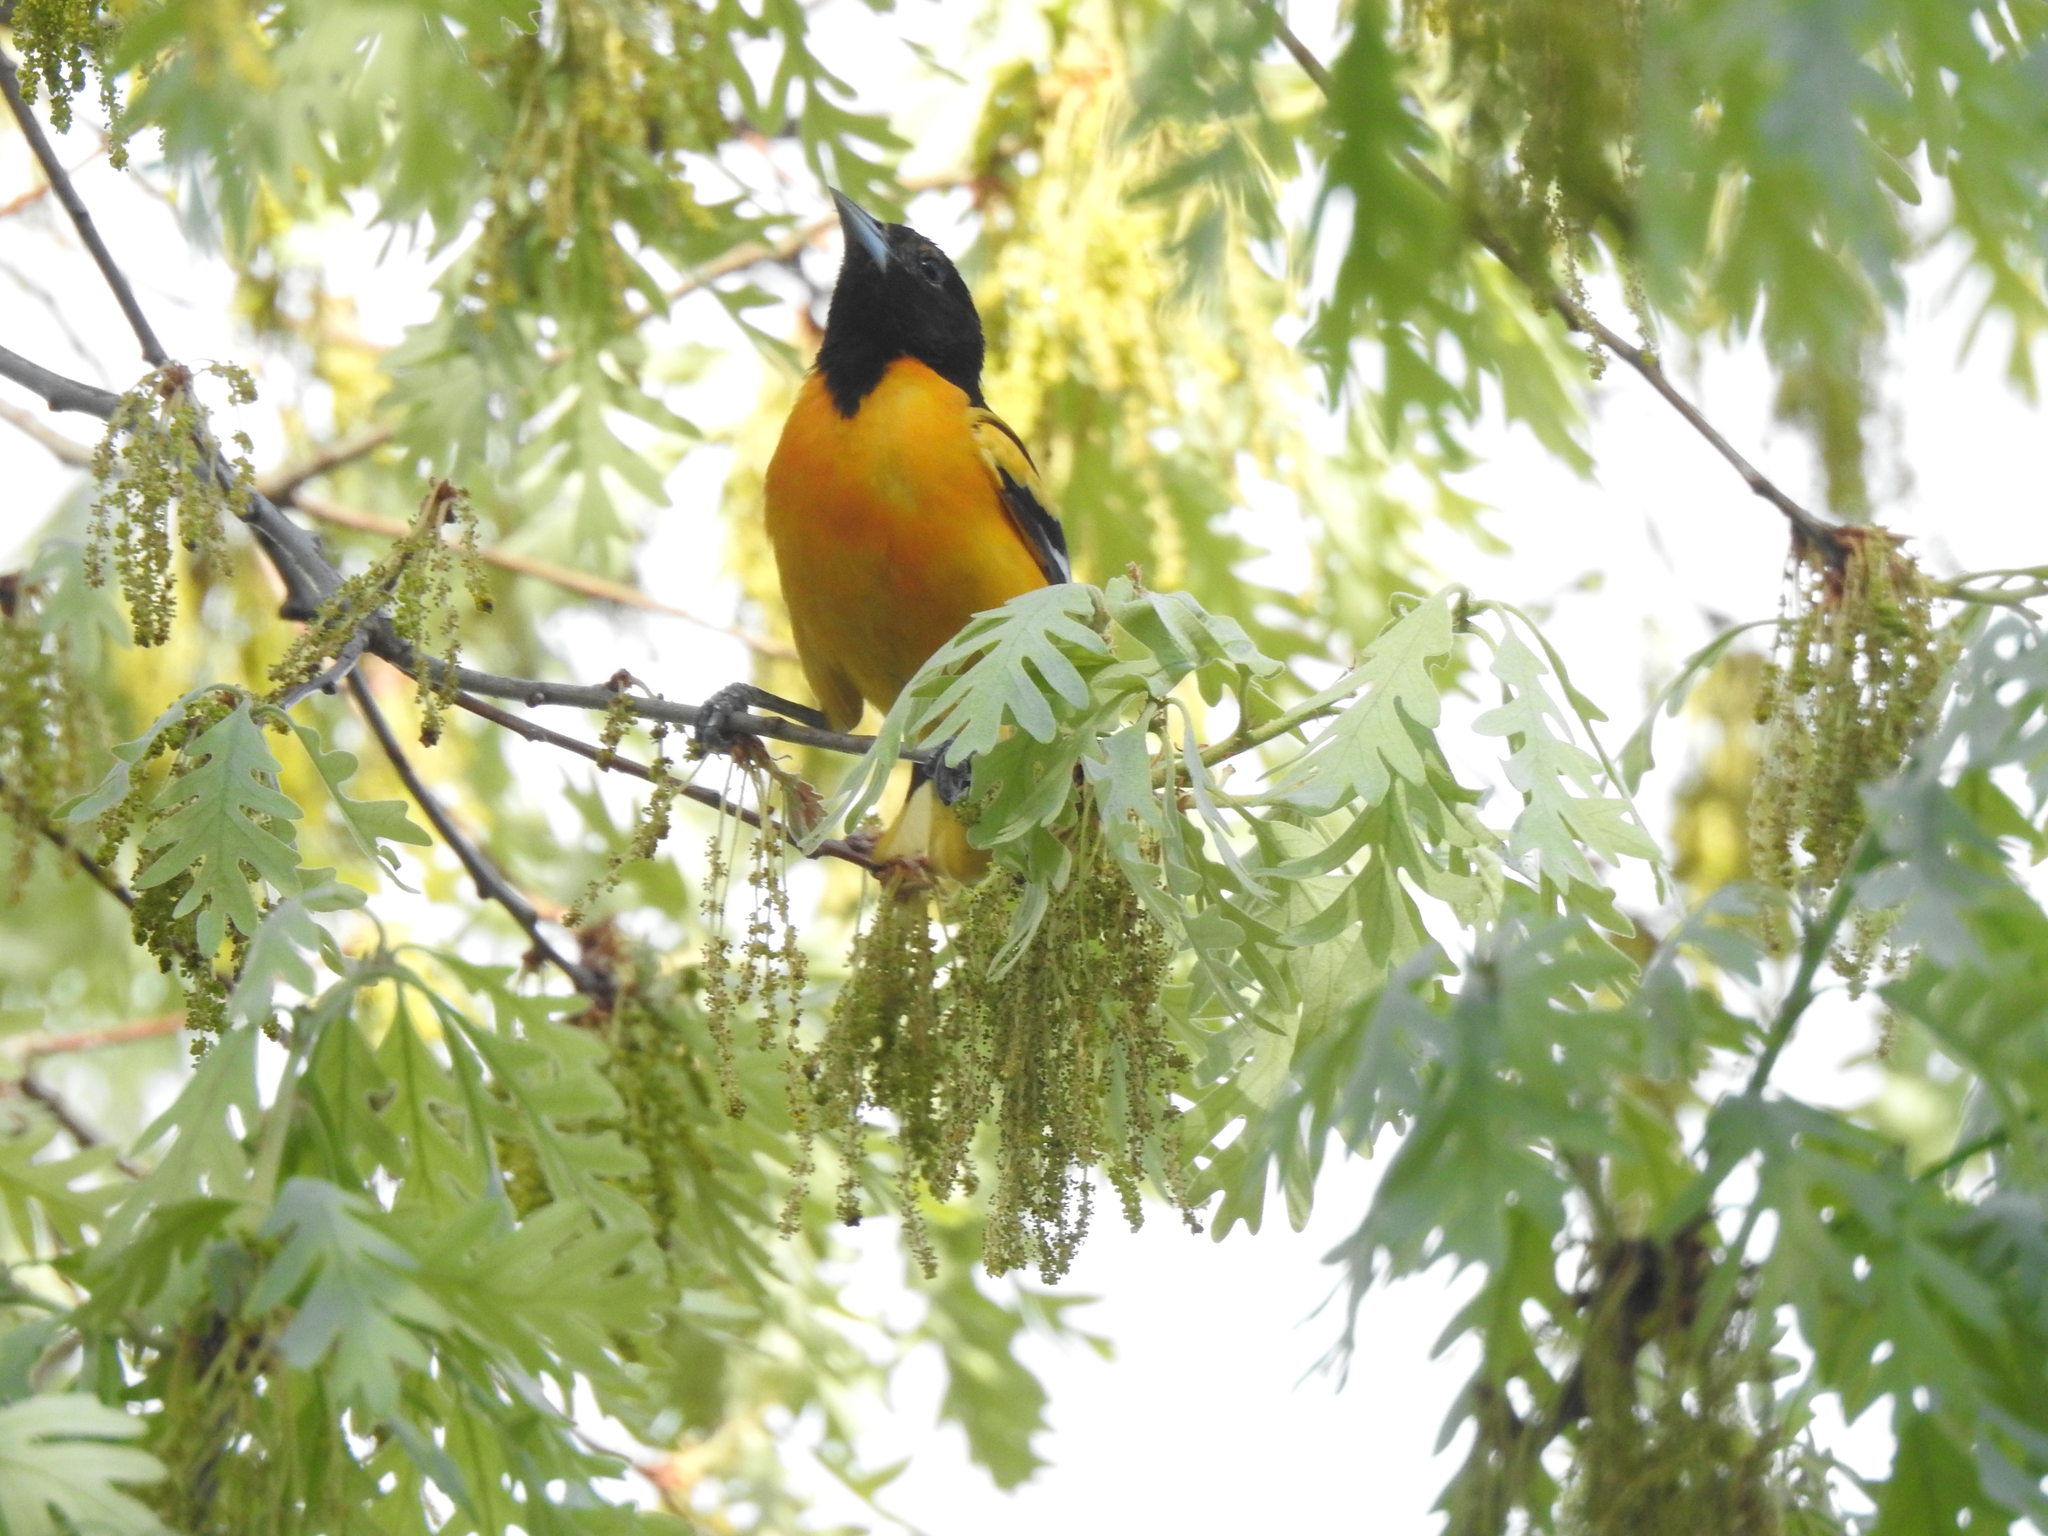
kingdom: Animalia
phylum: Chordata
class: Aves
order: Passeriformes
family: Icteridae
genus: Icterus
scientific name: Icterus galbula
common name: Baltimore oriole
